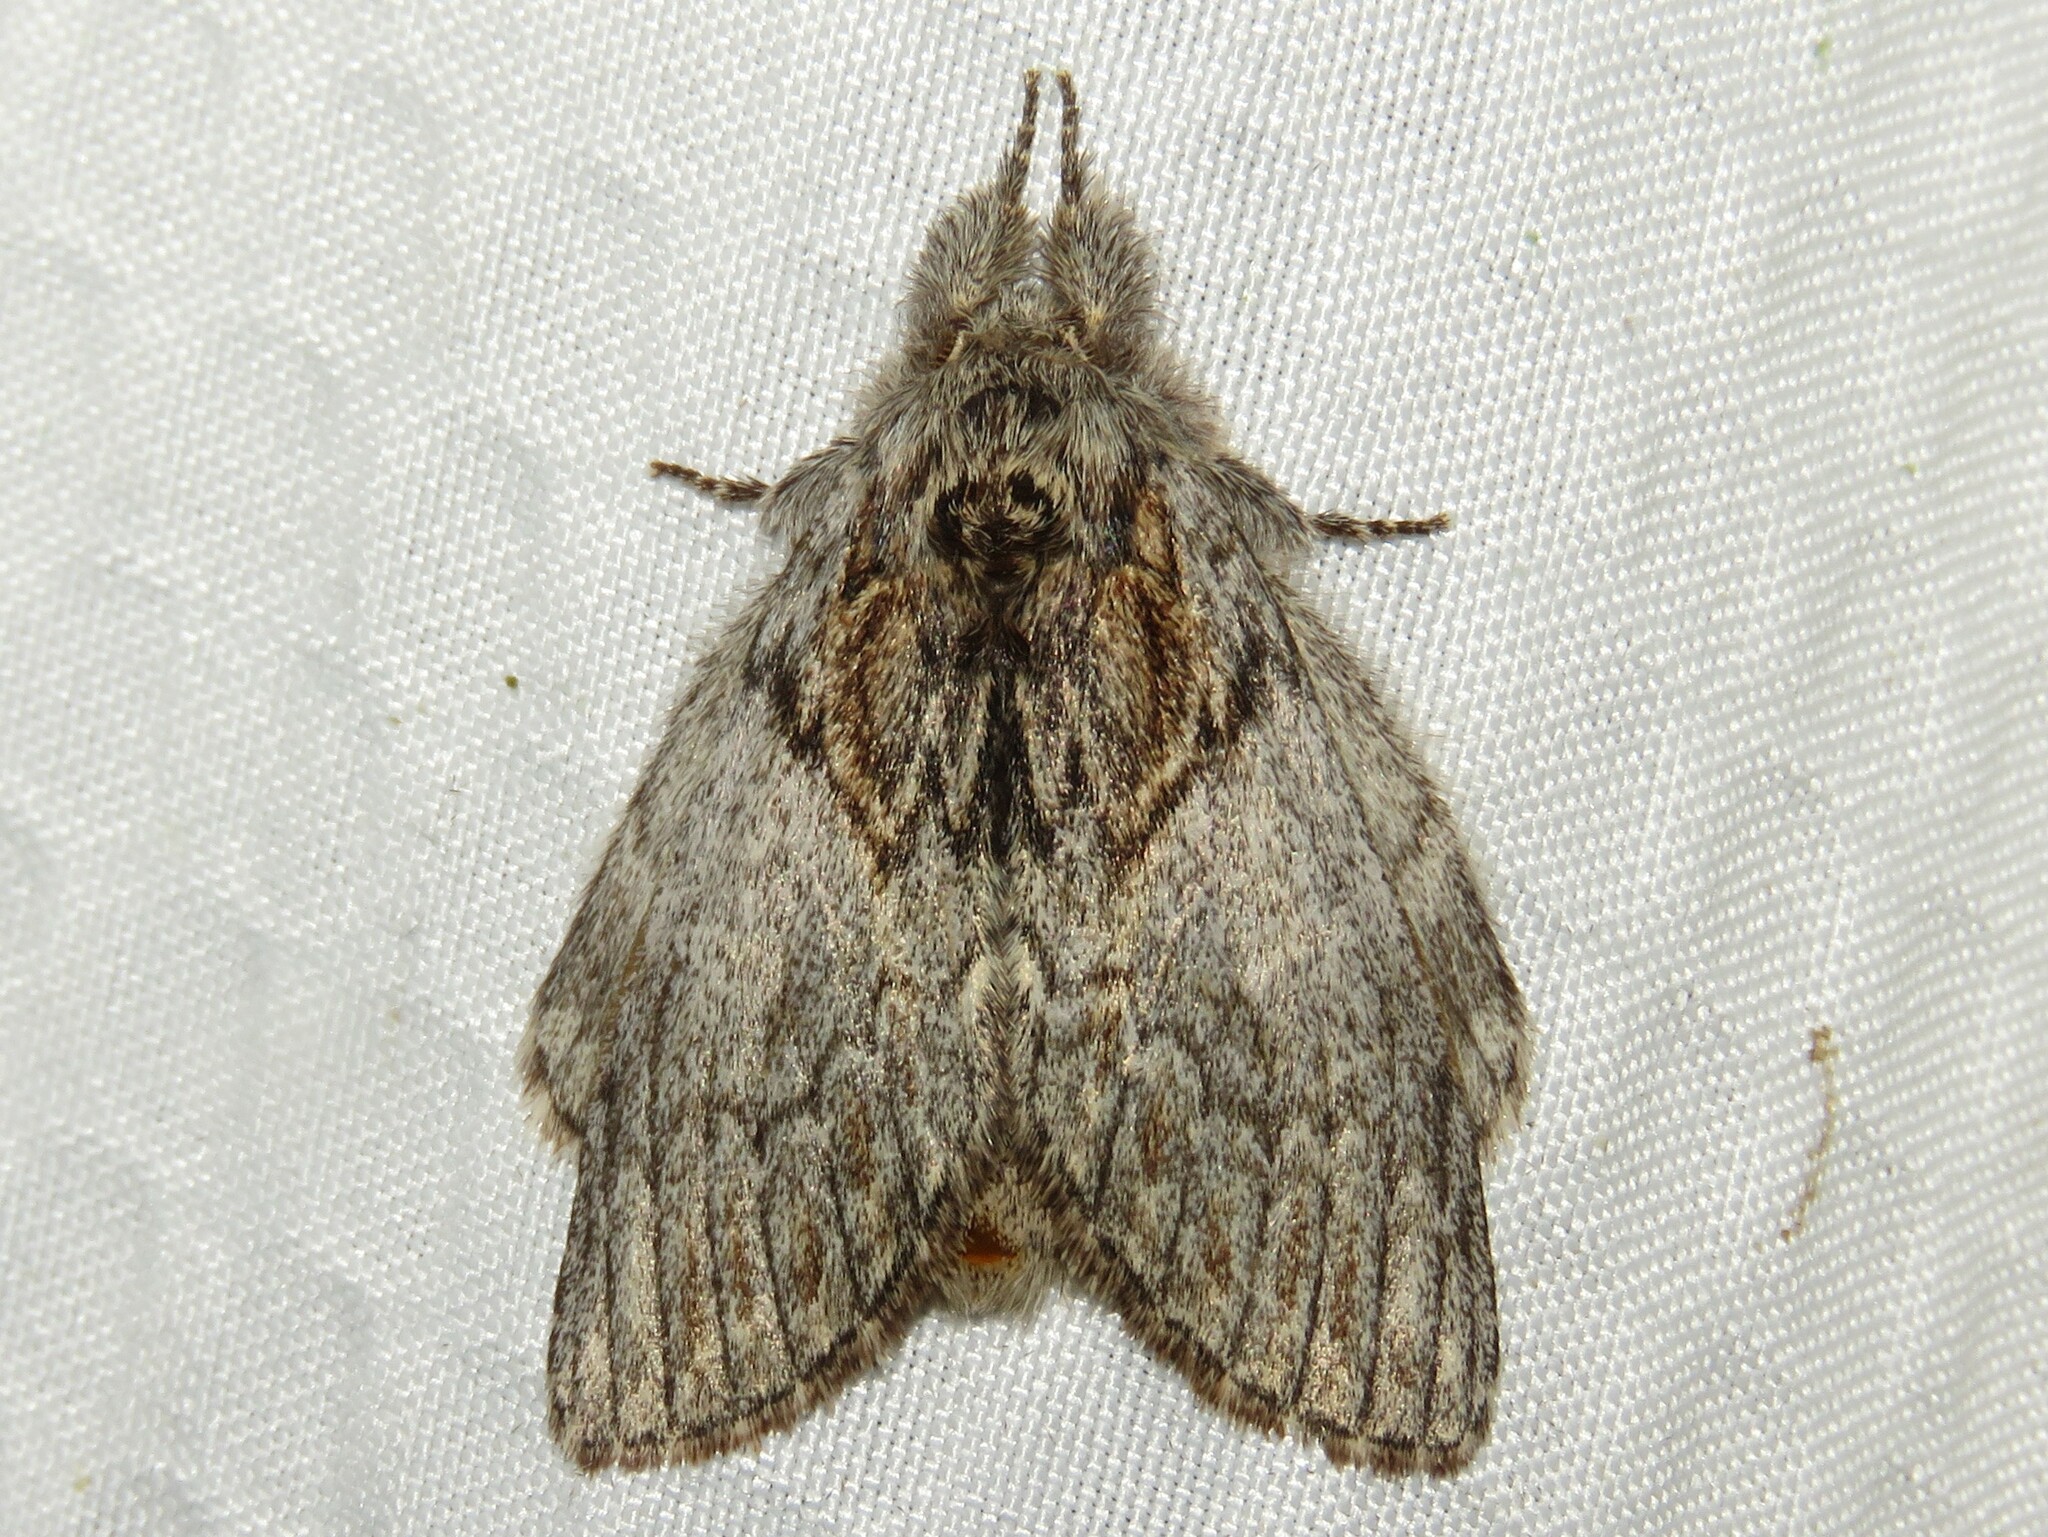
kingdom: Animalia
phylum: Arthropoda
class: Insecta
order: Lepidoptera
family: Notodontidae
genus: Peridea
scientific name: Peridea basitriens
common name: Oval-based prominent
